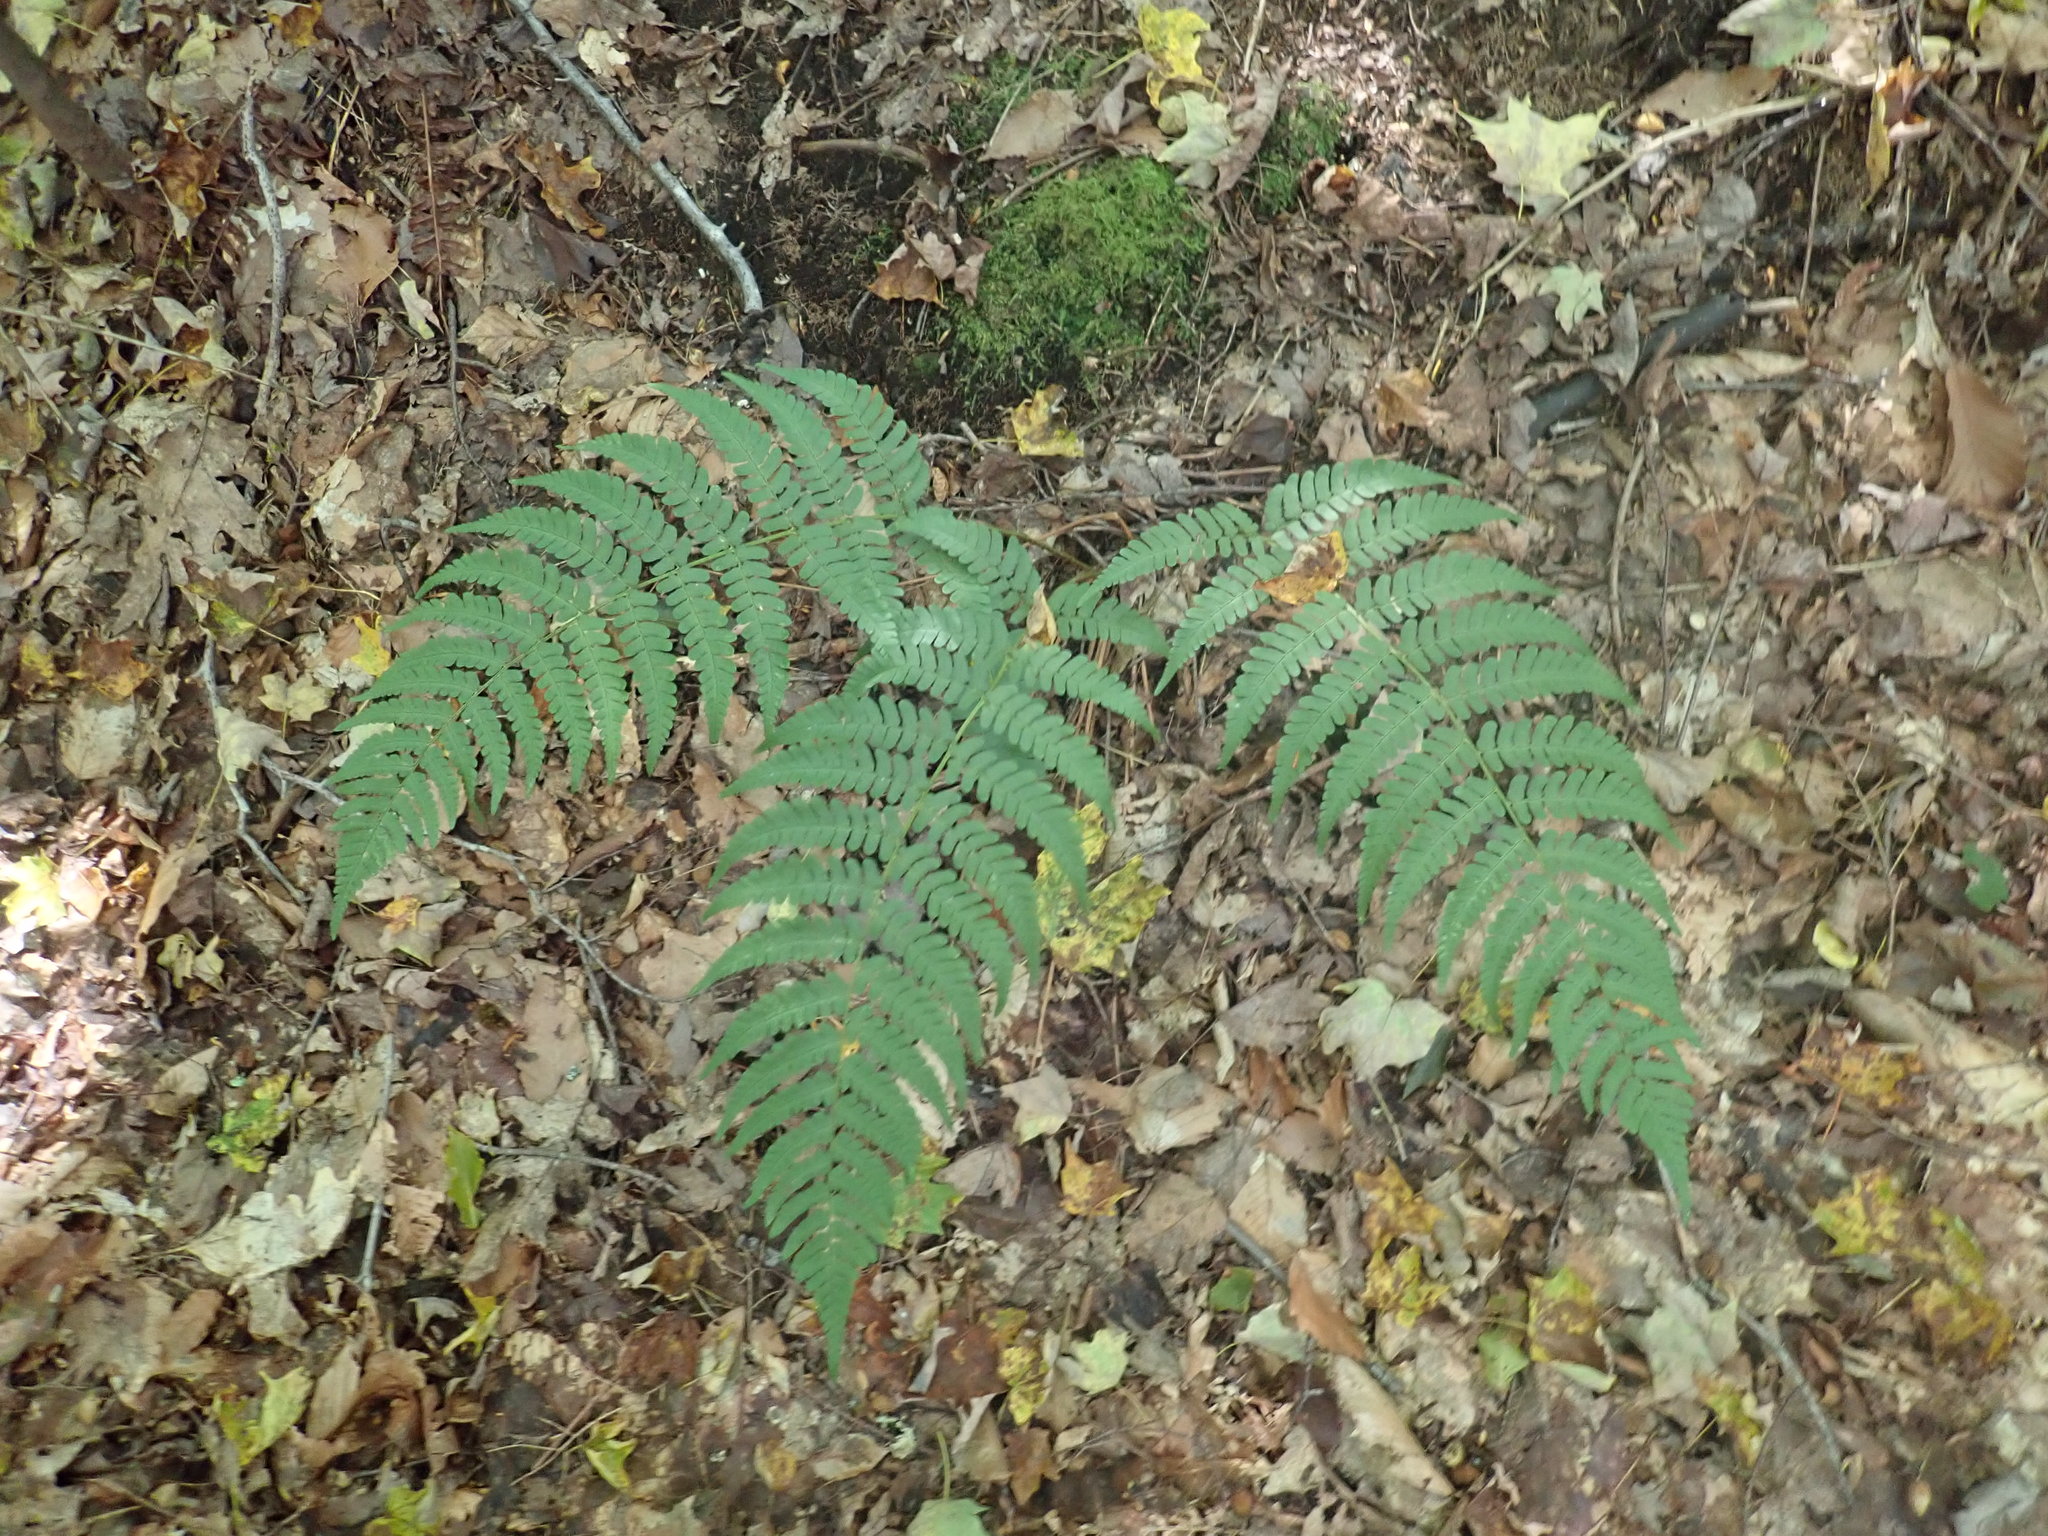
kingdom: Plantae
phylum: Tracheophyta
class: Polypodiopsida
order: Polypodiales
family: Dryopteridaceae
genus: Dryopteris
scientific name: Dryopteris marginalis
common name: Marginal wood fern
